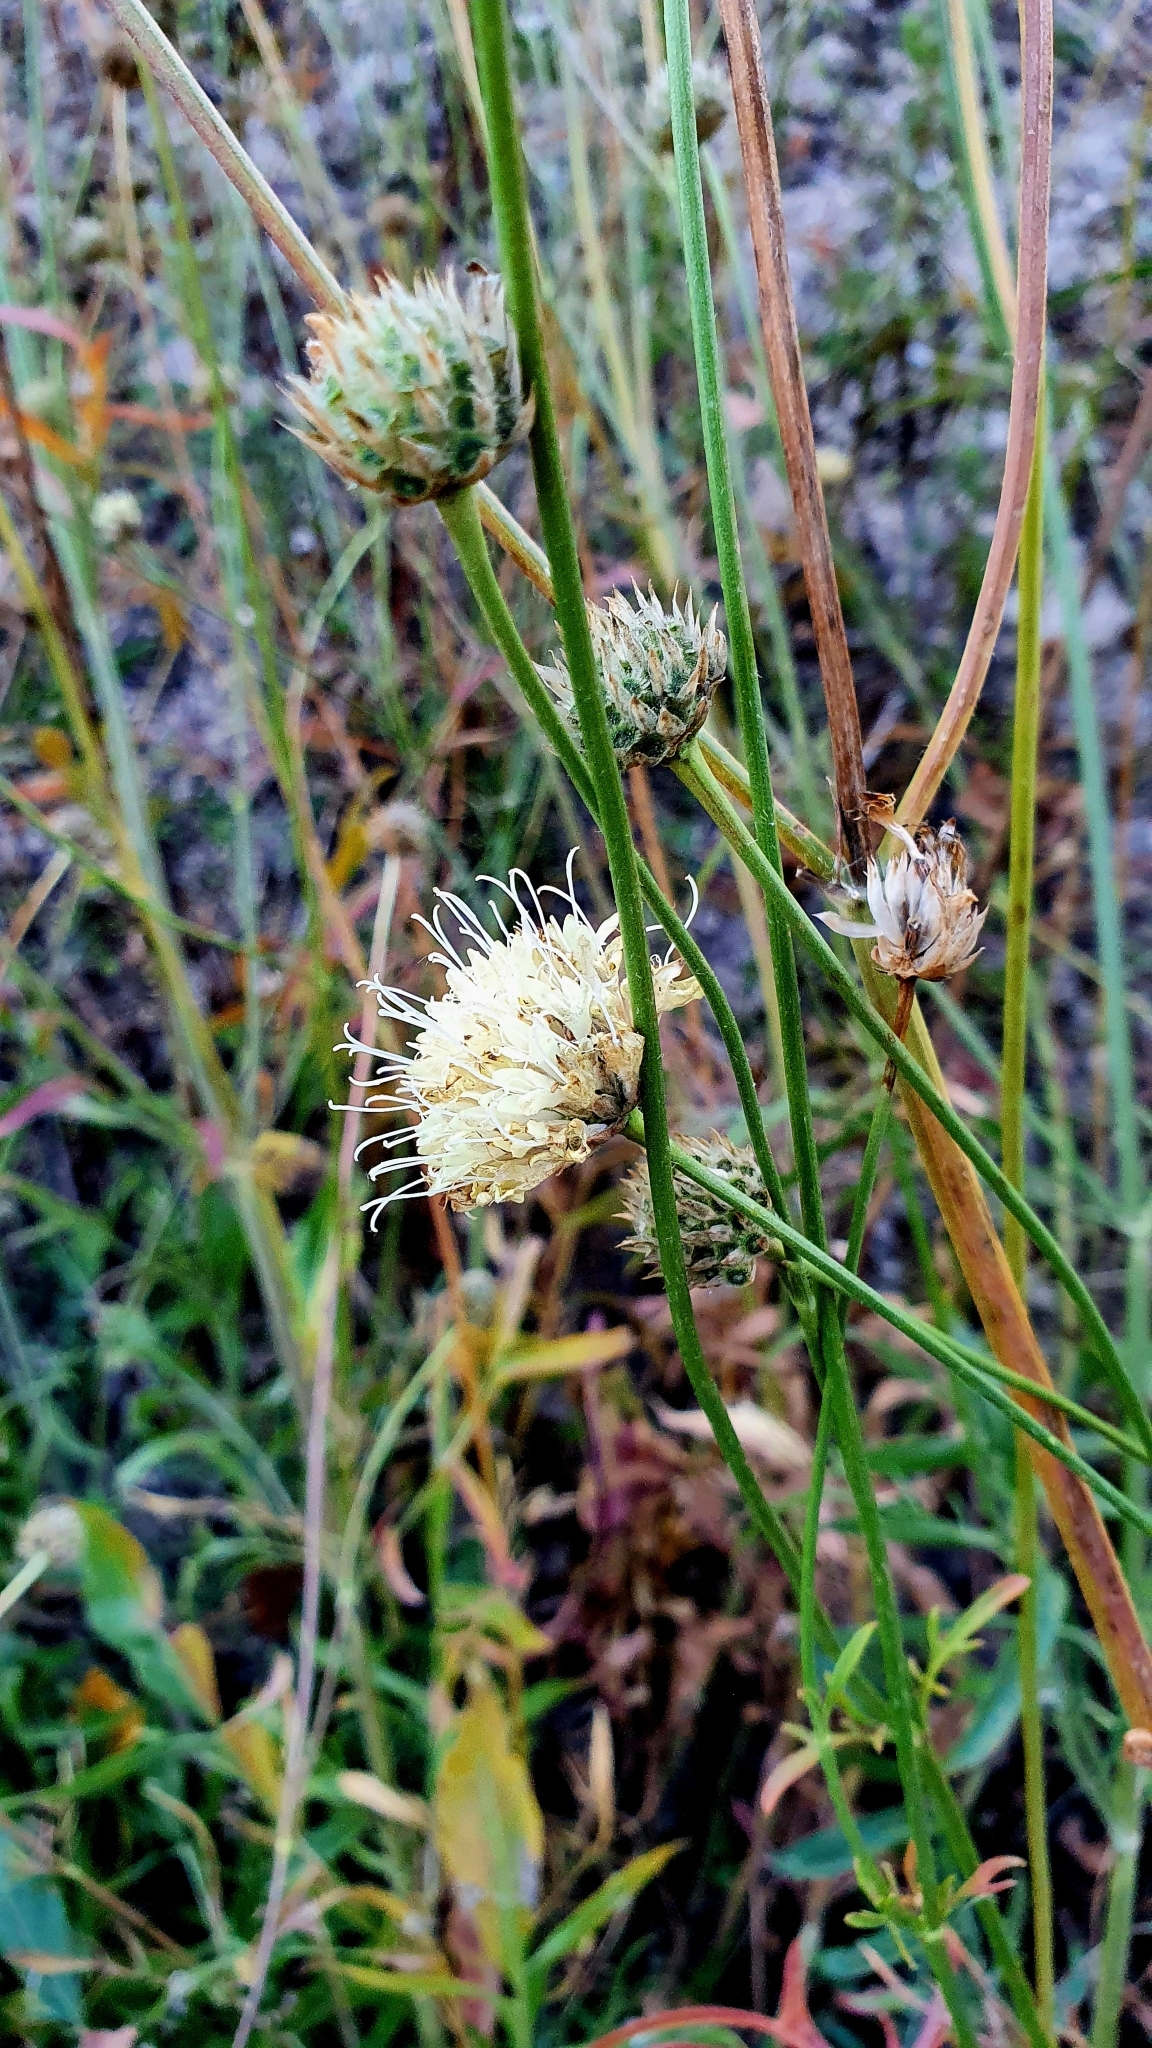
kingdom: Plantae
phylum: Tracheophyta
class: Magnoliopsida
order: Dipsacales
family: Caprifoliaceae
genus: Cephalaria
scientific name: Cephalaria uralensis
